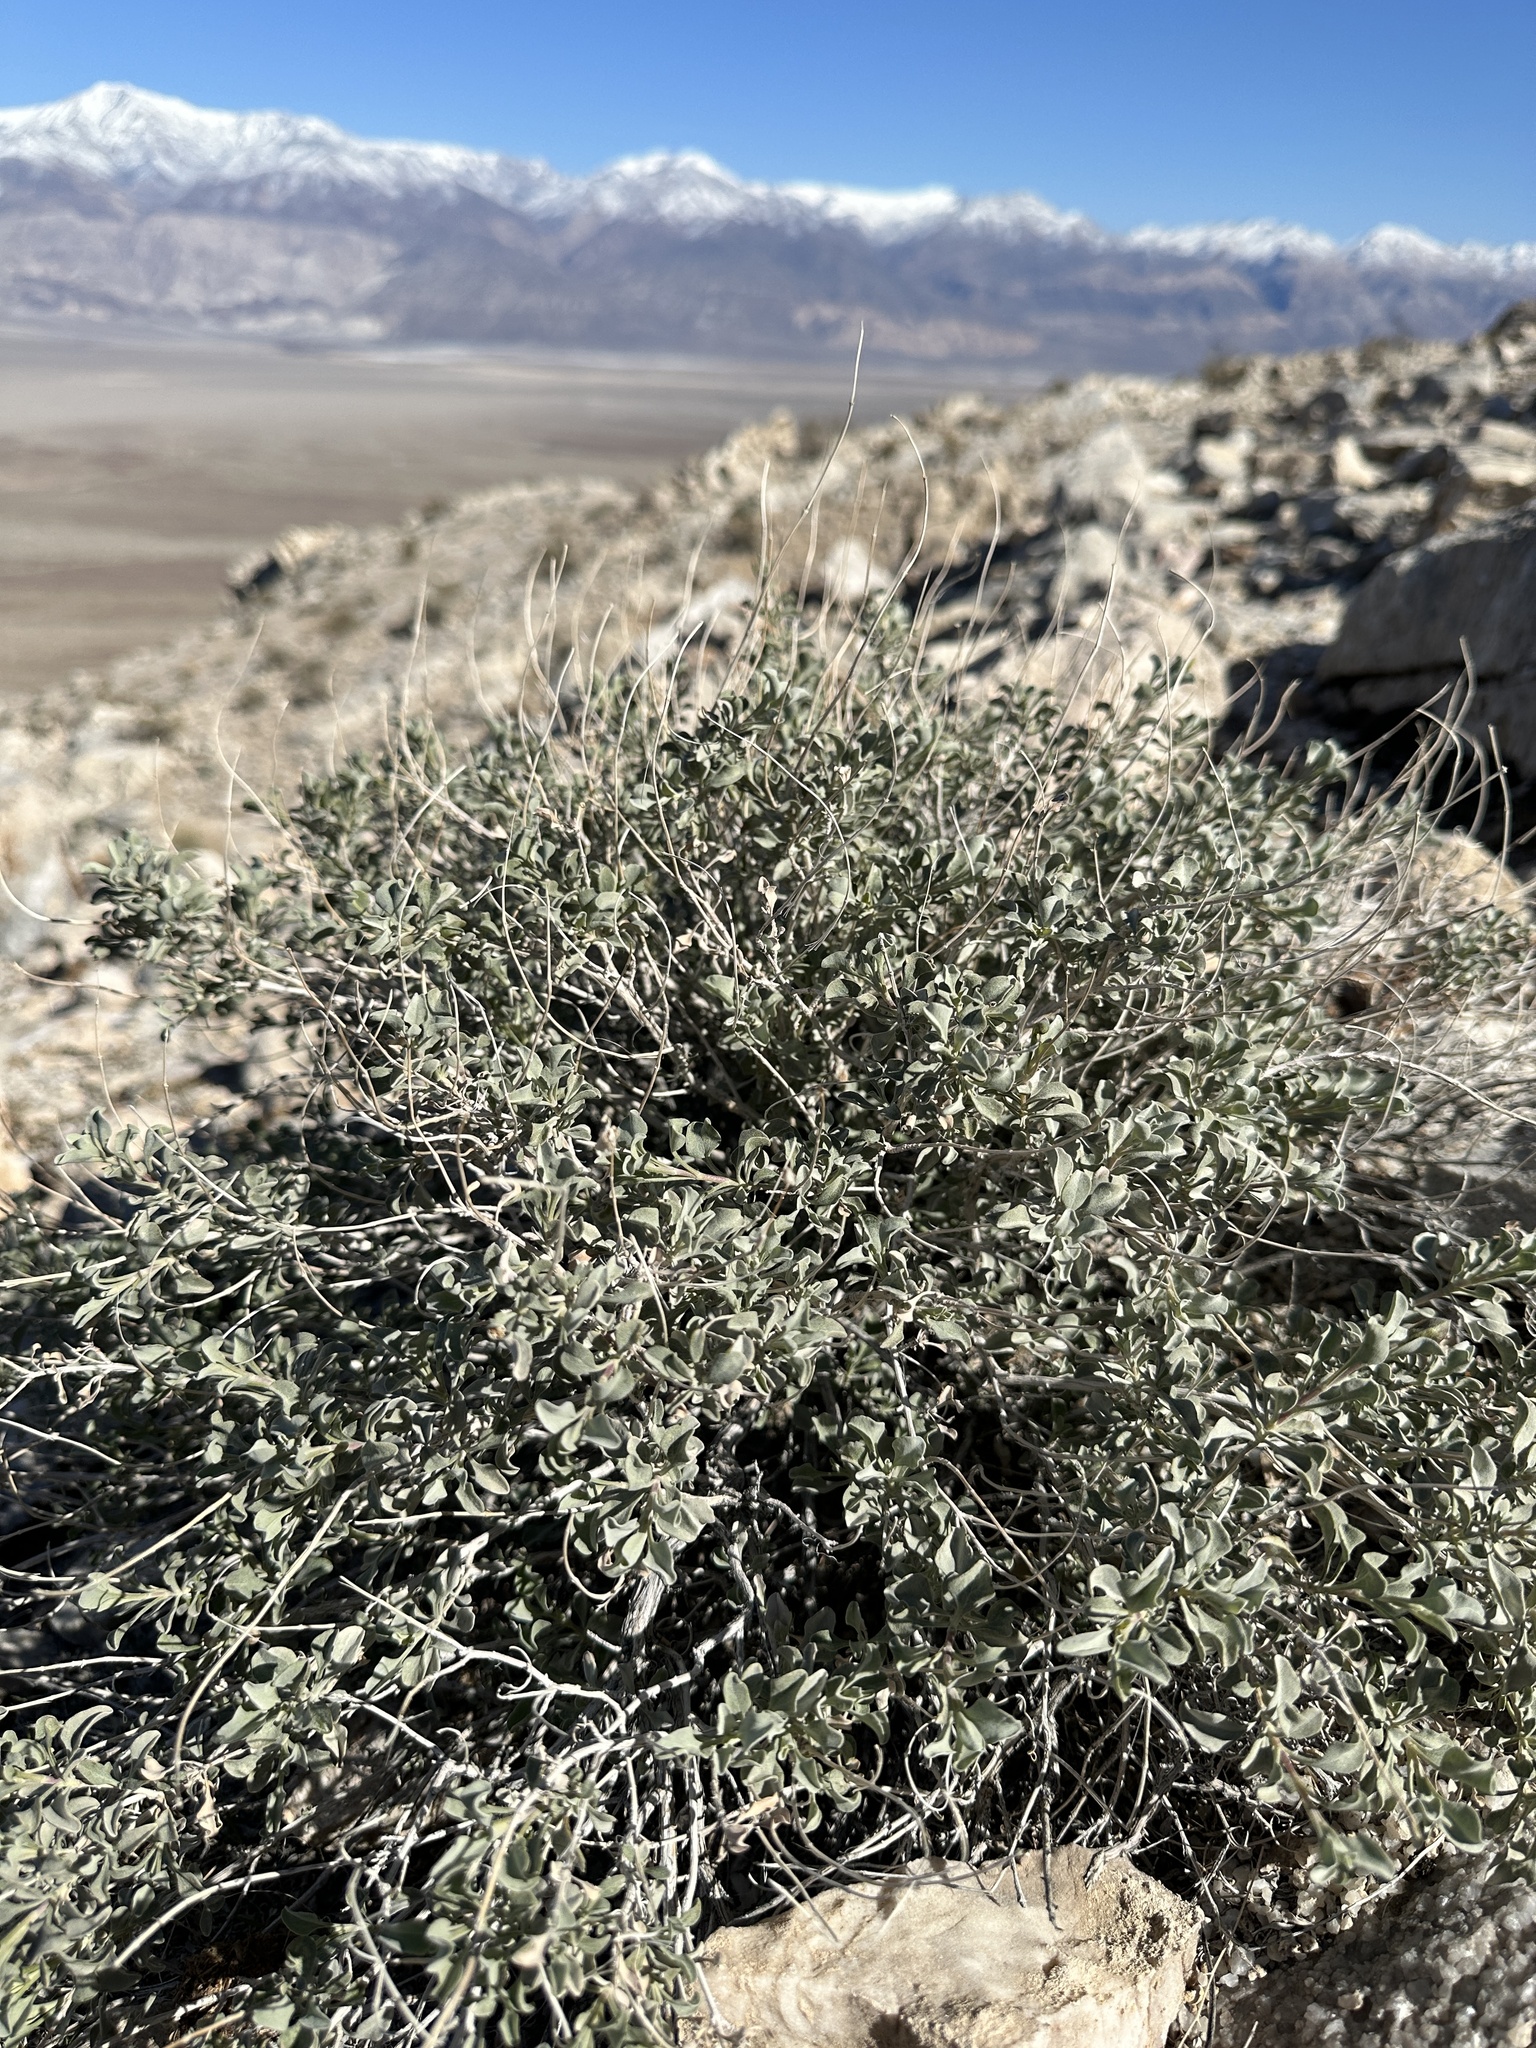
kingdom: Plantae
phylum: Tracheophyta
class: Magnoliopsida
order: Lamiales
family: Lamiaceae
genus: Salvia
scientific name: Salvia dorrii
